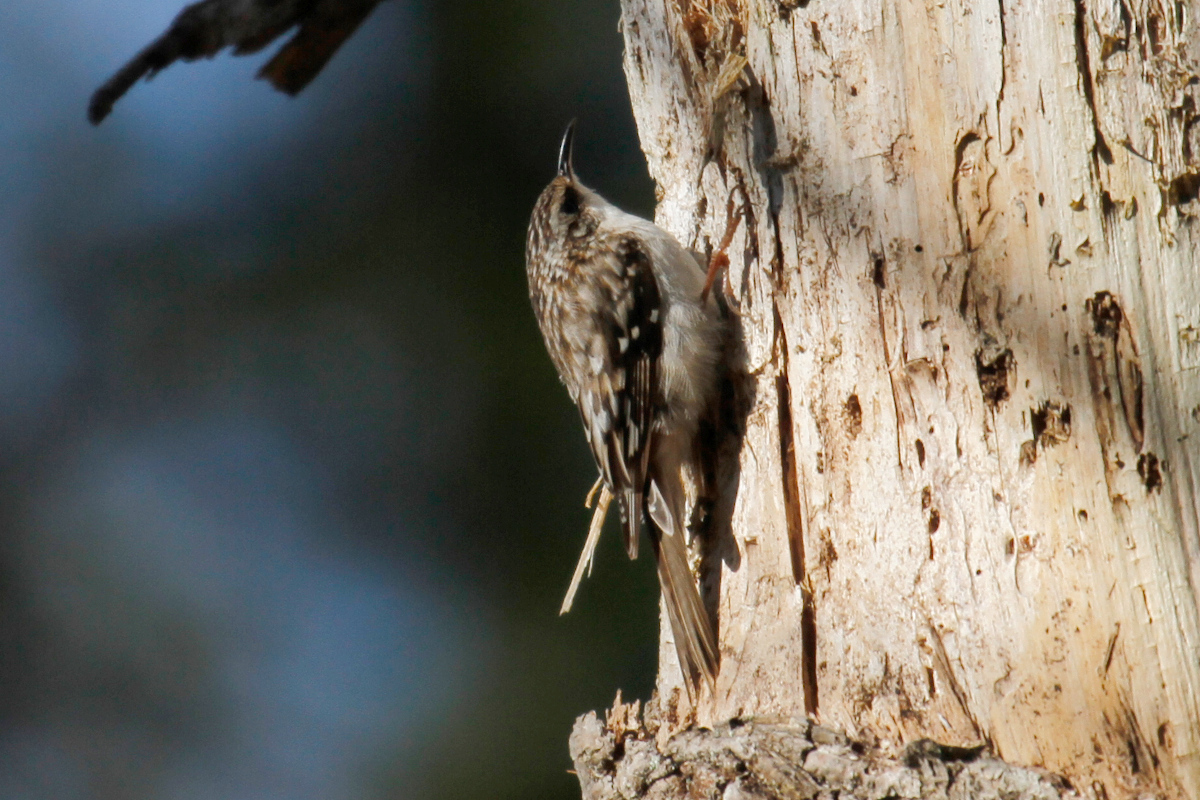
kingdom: Animalia
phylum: Chordata
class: Aves
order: Passeriformes
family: Certhiidae
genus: Certhia
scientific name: Certhia americana
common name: Brown creeper
